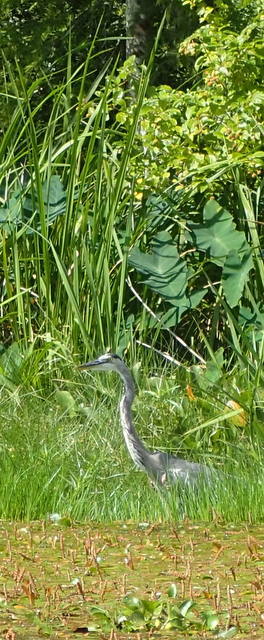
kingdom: Animalia
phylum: Chordata
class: Aves
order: Pelecaniformes
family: Ardeidae
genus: Ardea
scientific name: Ardea herodias
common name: Great blue heron
